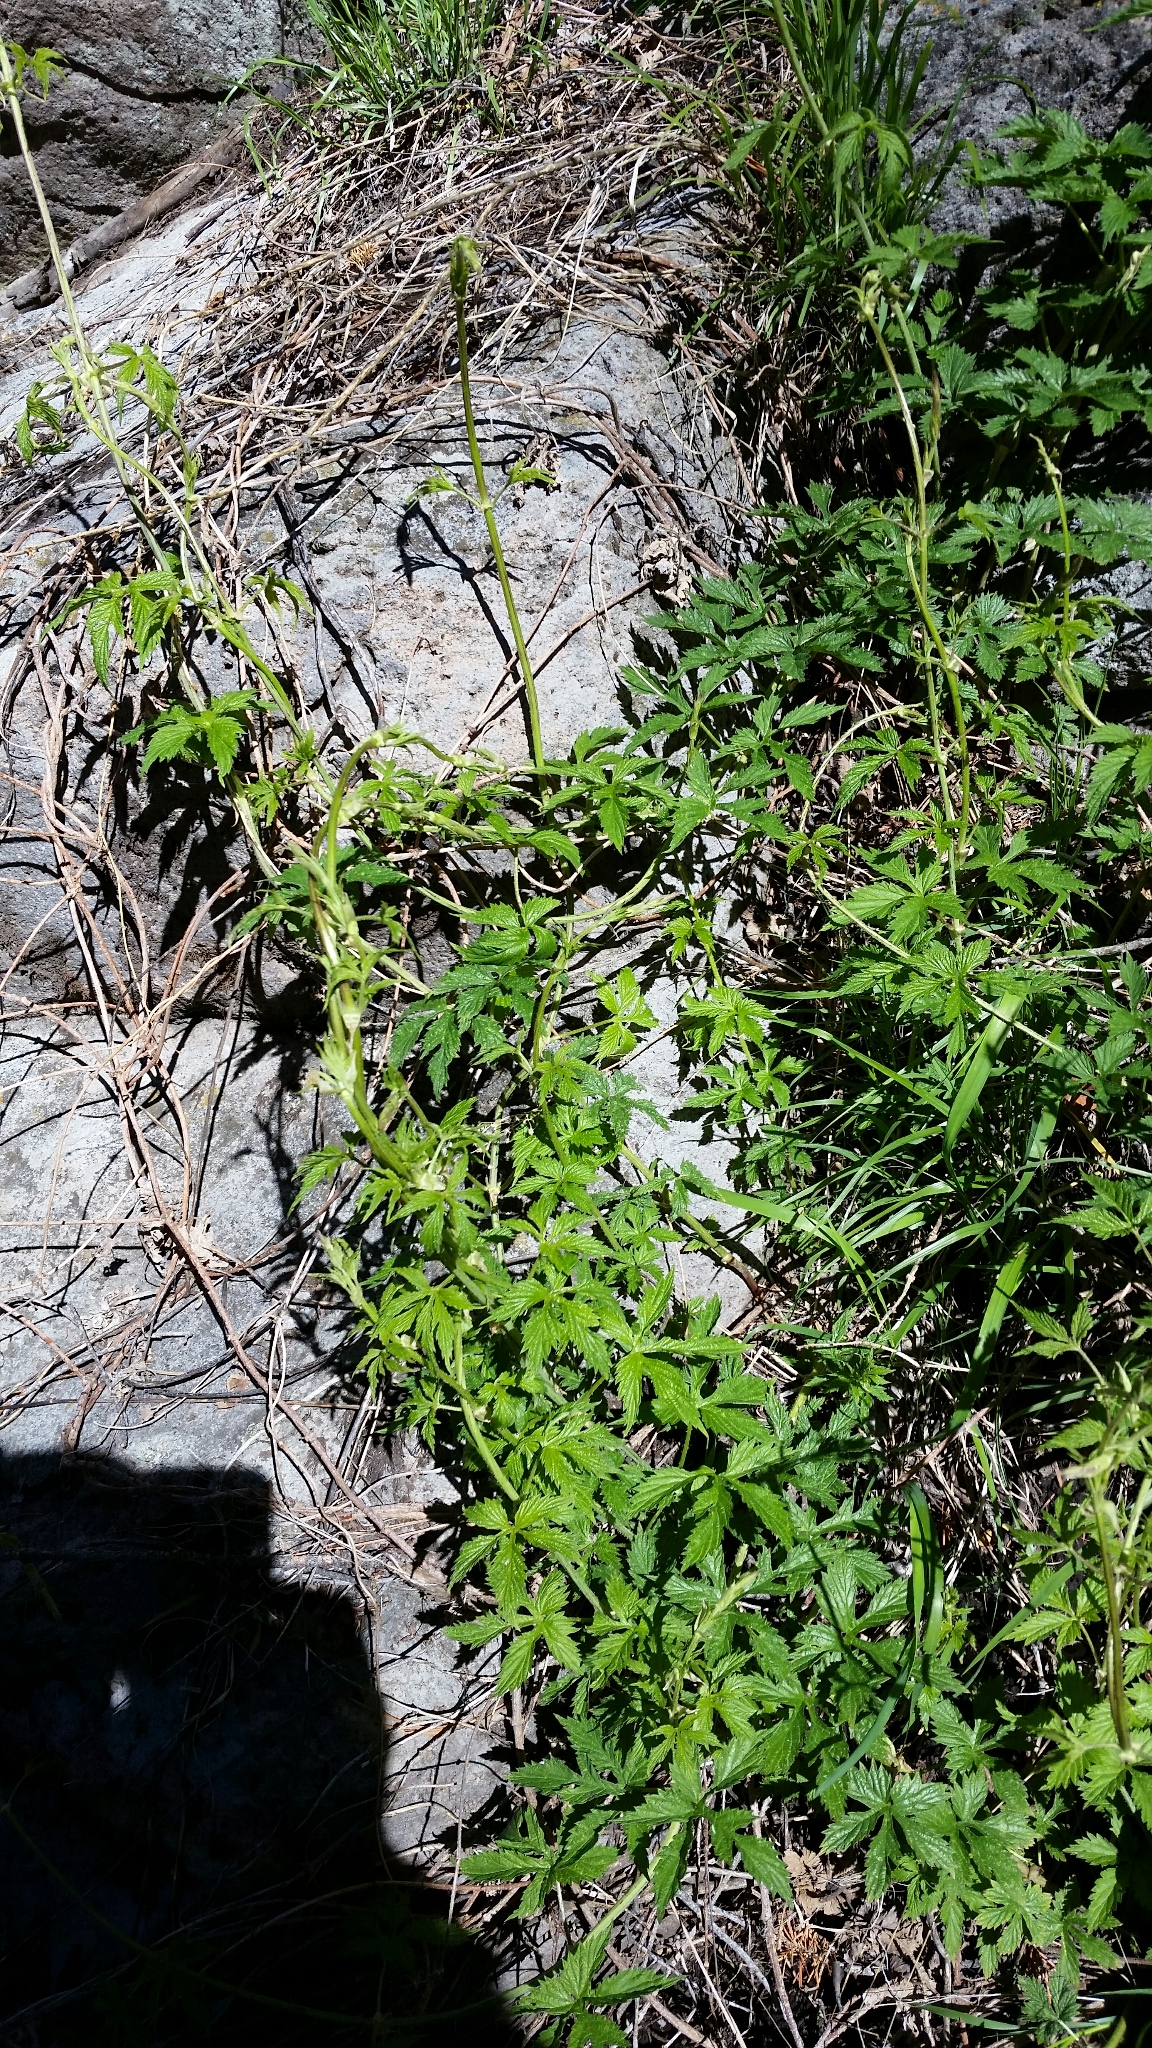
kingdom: Plantae
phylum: Tracheophyta
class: Magnoliopsida
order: Rosales
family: Cannabaceae
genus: Humulus
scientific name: Humulus lupulus
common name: Hop
